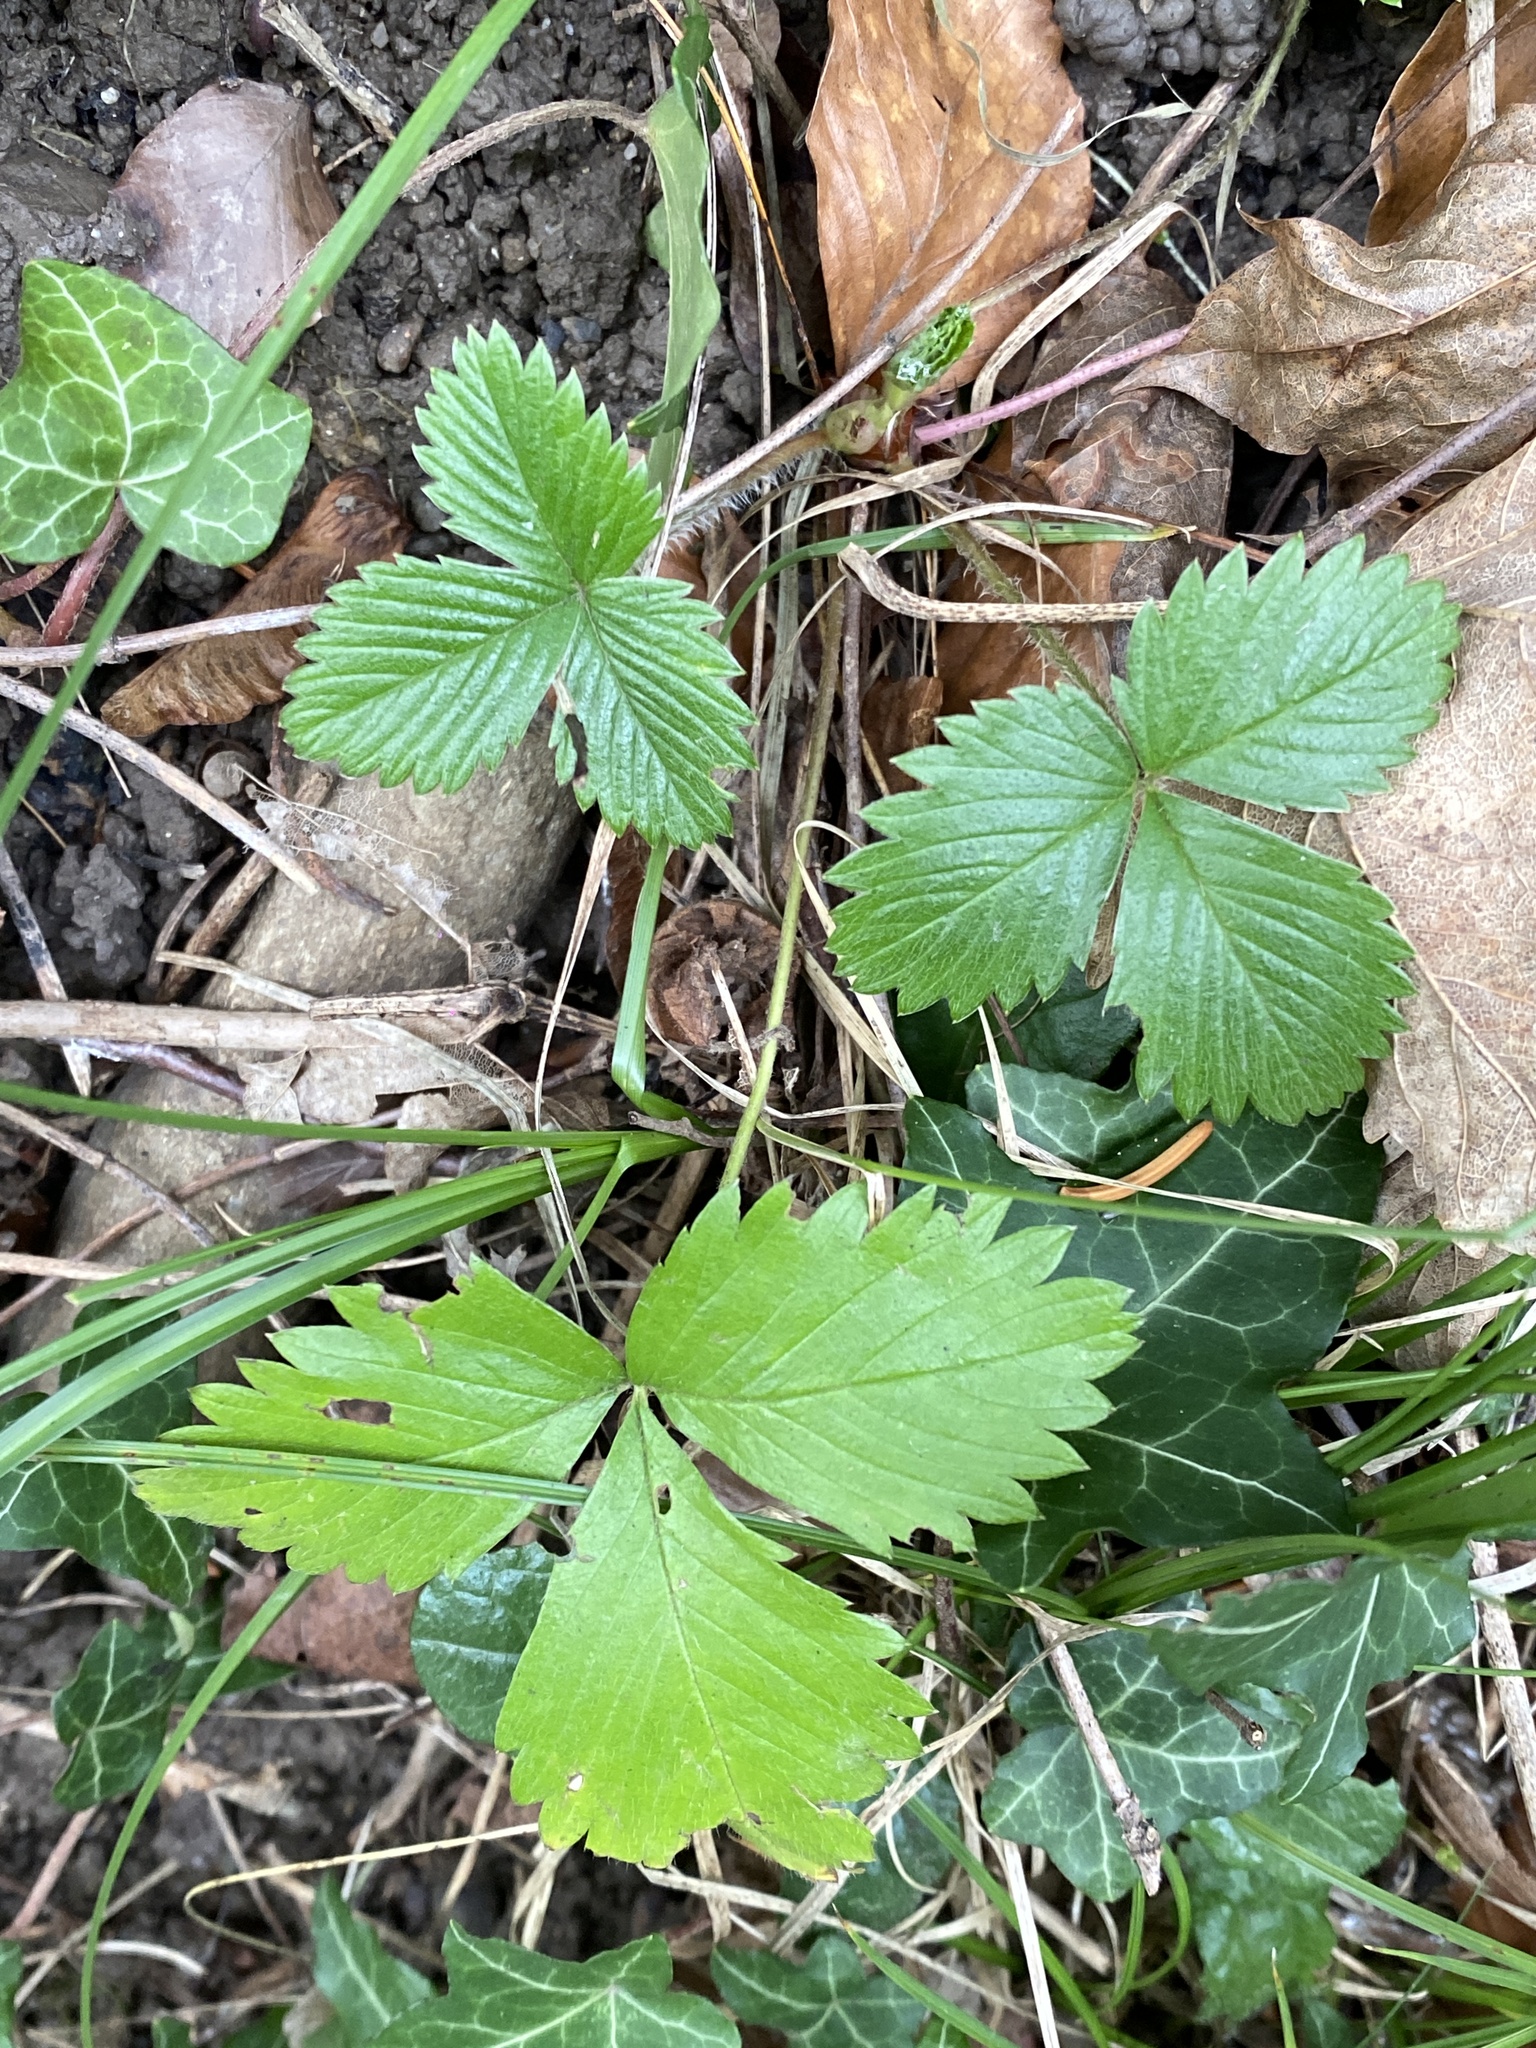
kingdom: Plantae
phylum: Tracheophyta
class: Magnoliopsida
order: Rosales
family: Rosaceae
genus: Fragaria
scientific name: Fragaria vesca
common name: Wild strawberry
